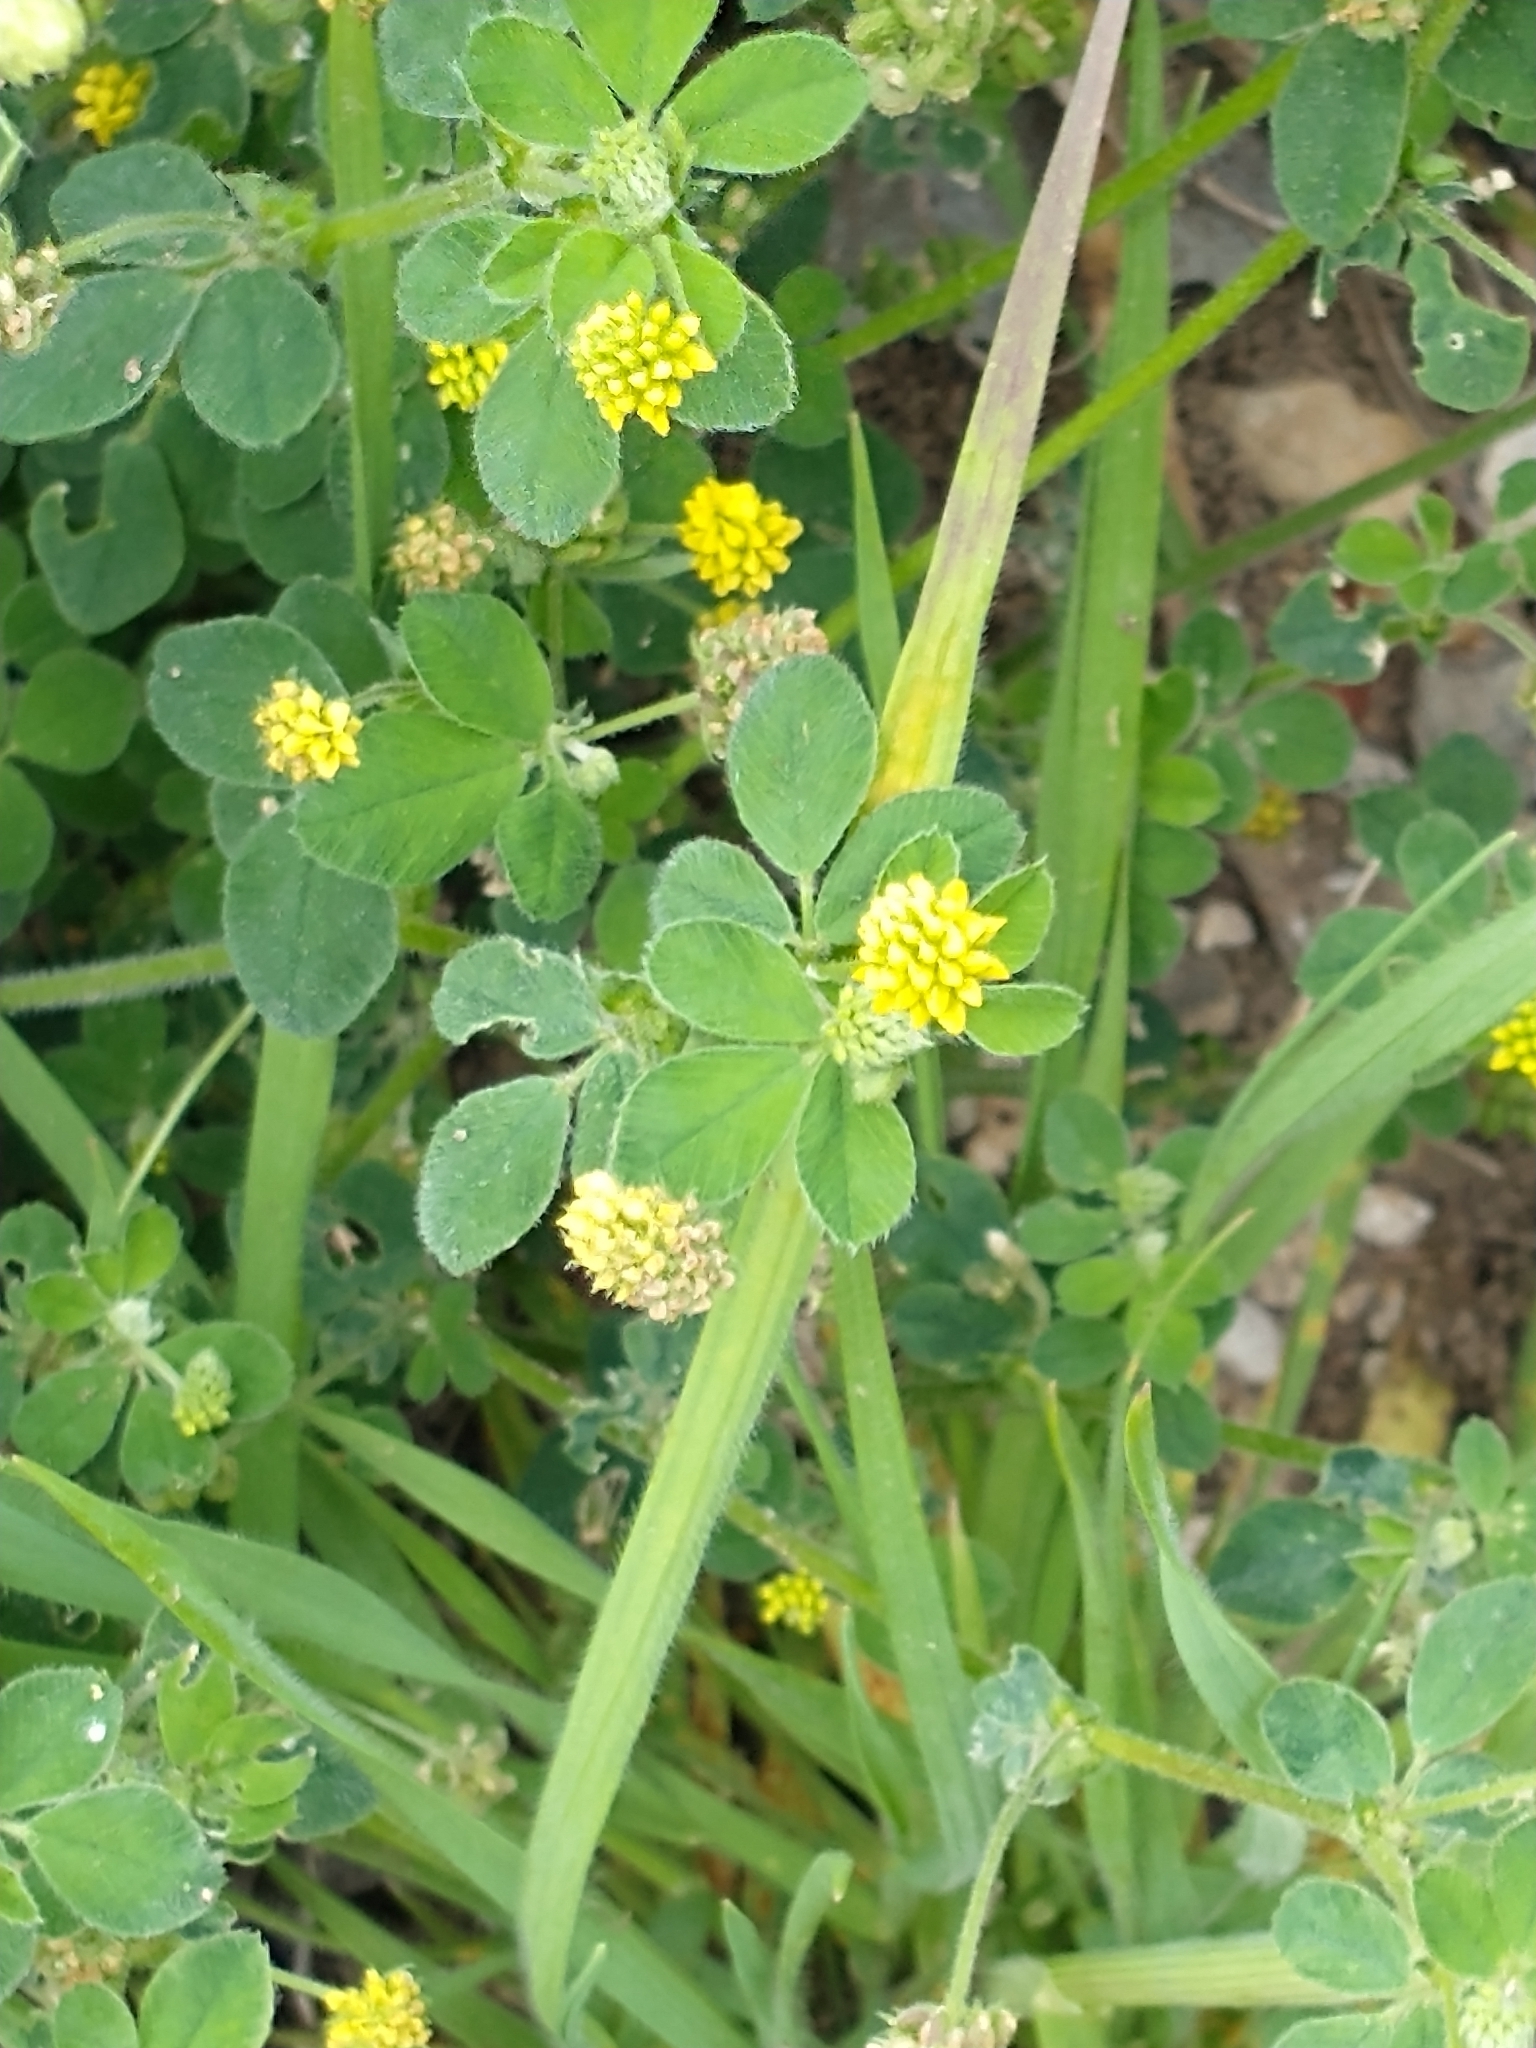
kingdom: Plantae
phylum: Tracheophyta
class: Magnoliopsida
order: Fabales
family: Fabaceae
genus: Medicago
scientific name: Medicago lupulina
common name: Black medick
